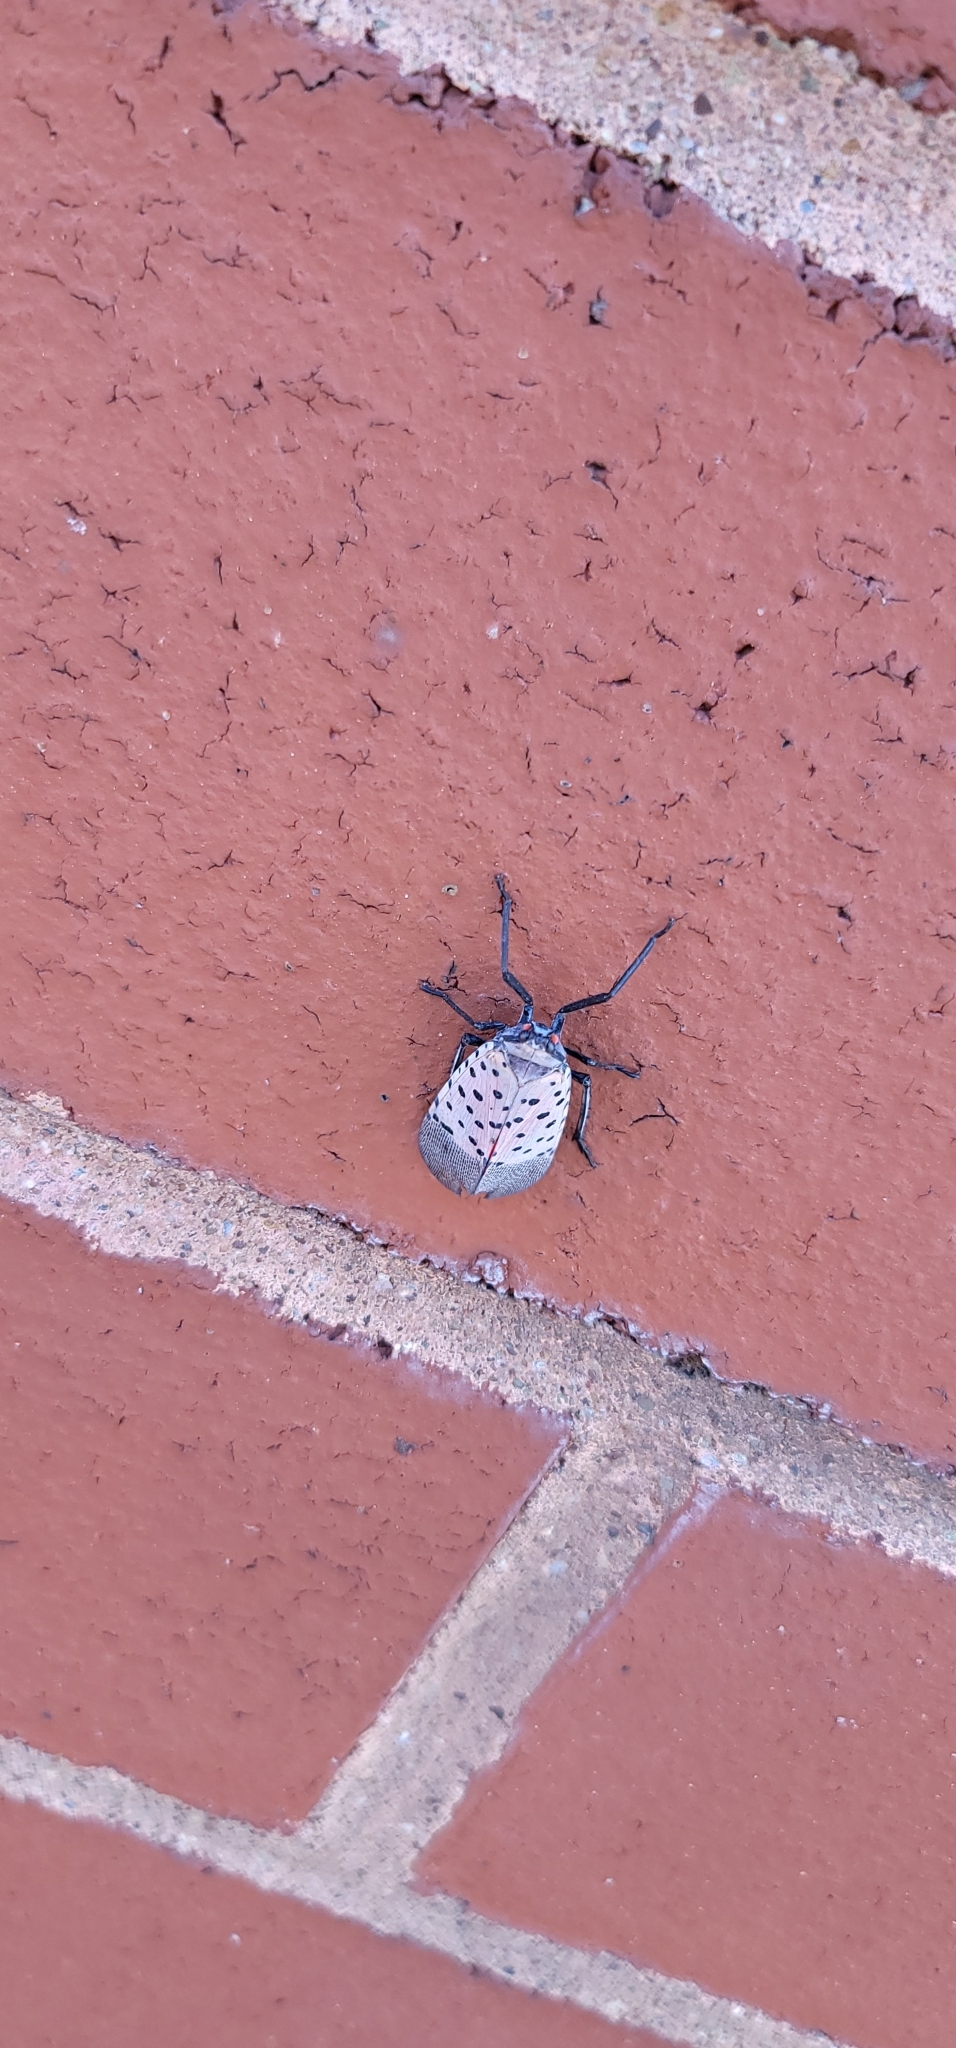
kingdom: Animalia
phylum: Arthropoda
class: Insecta
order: Hemiptera
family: Fulgoridae
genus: Lycorma
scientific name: Lycorma delicatula
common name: Spotted lanternfly
